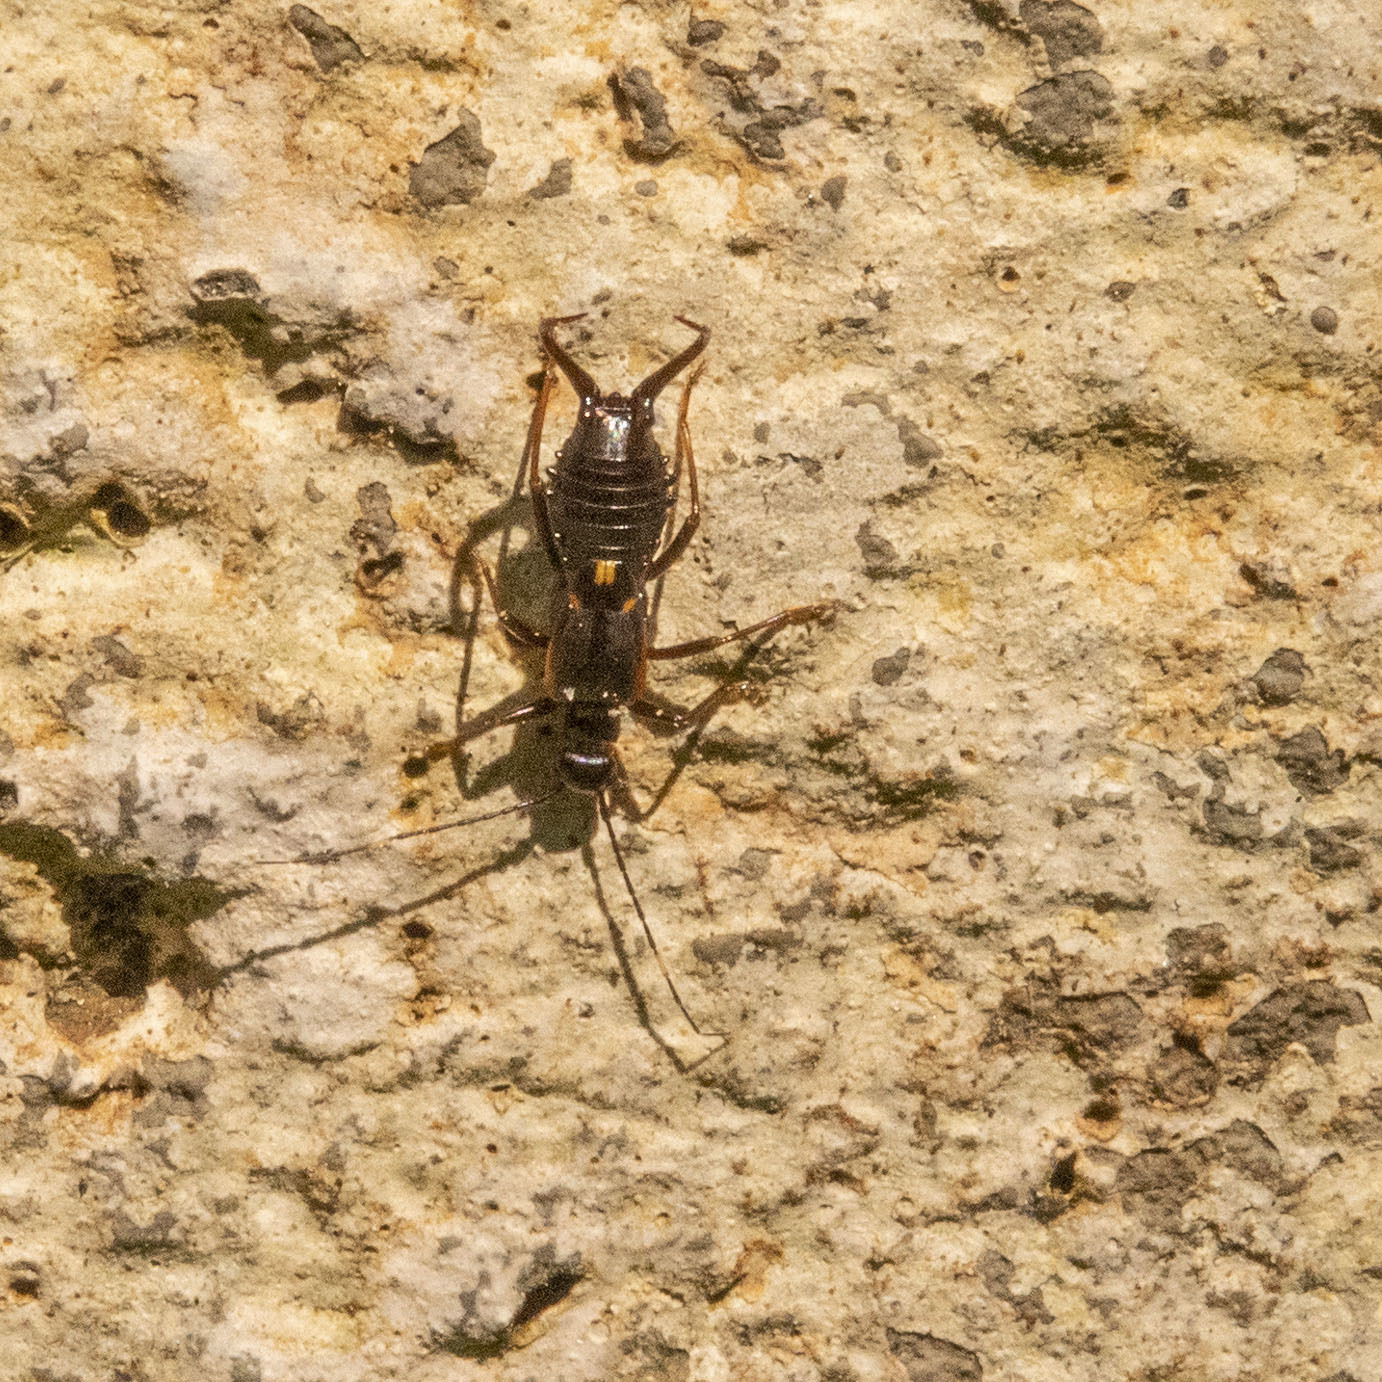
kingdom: Animalia
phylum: Arthropoda
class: Insecta
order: Dermaptera
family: Forficulidae
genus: Eparchus
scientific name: Eparchus insignis
